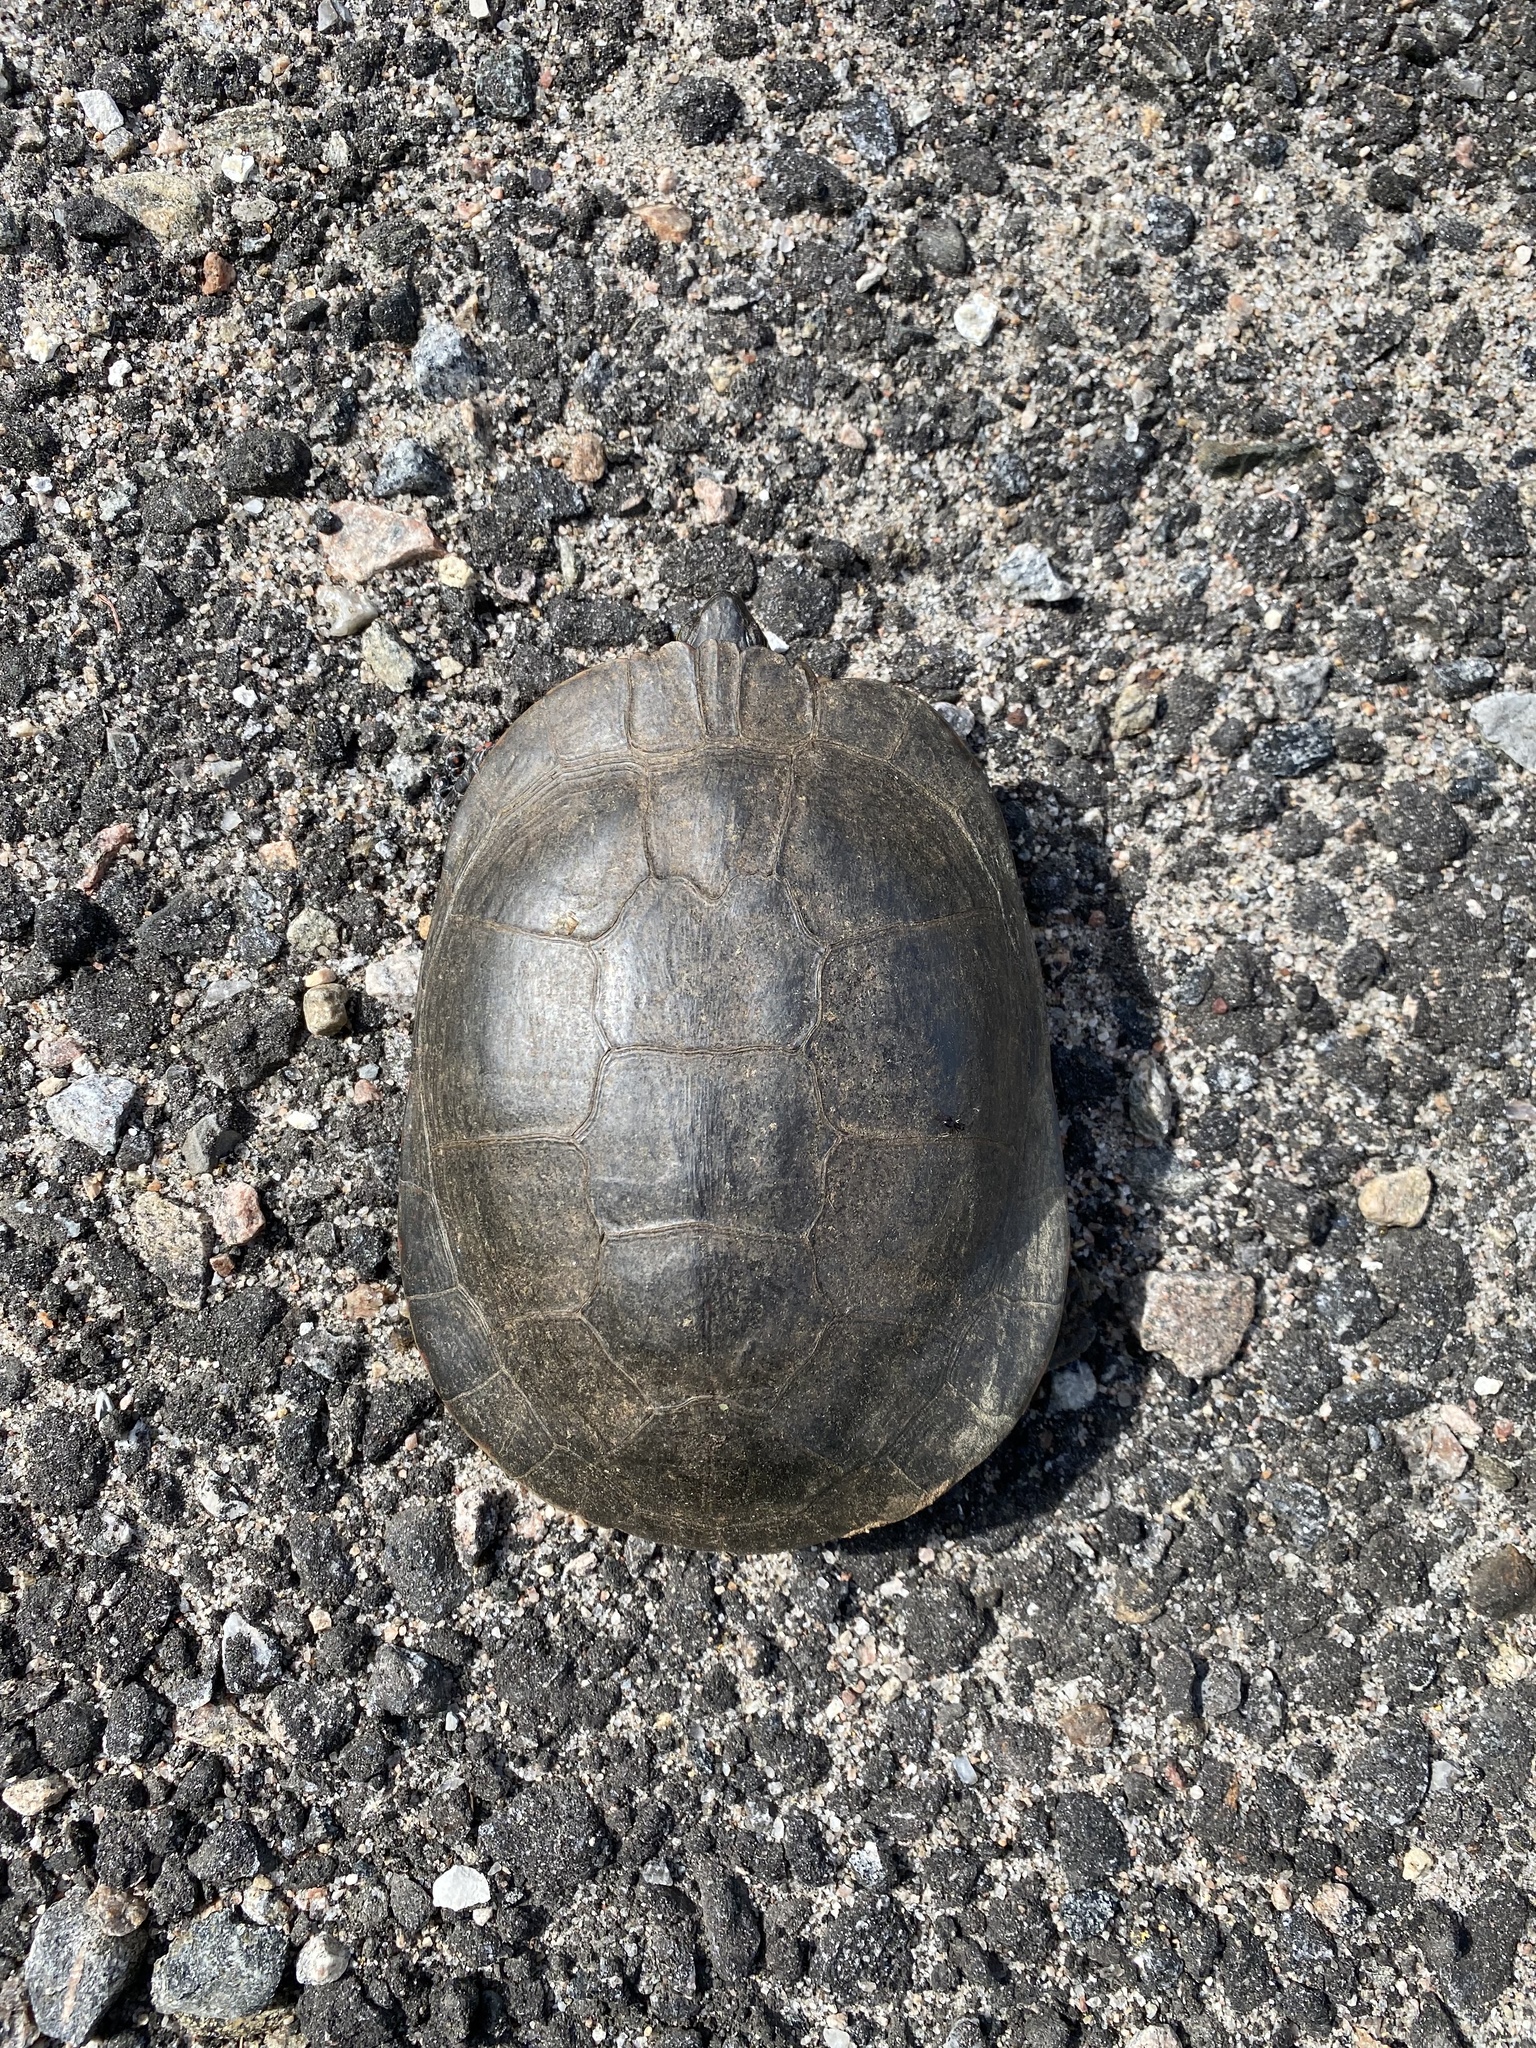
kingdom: Animalia
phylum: Chordata
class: Testudines
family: Emydidae
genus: Chrysemys
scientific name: Chrysemys picta
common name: Painted turtle
